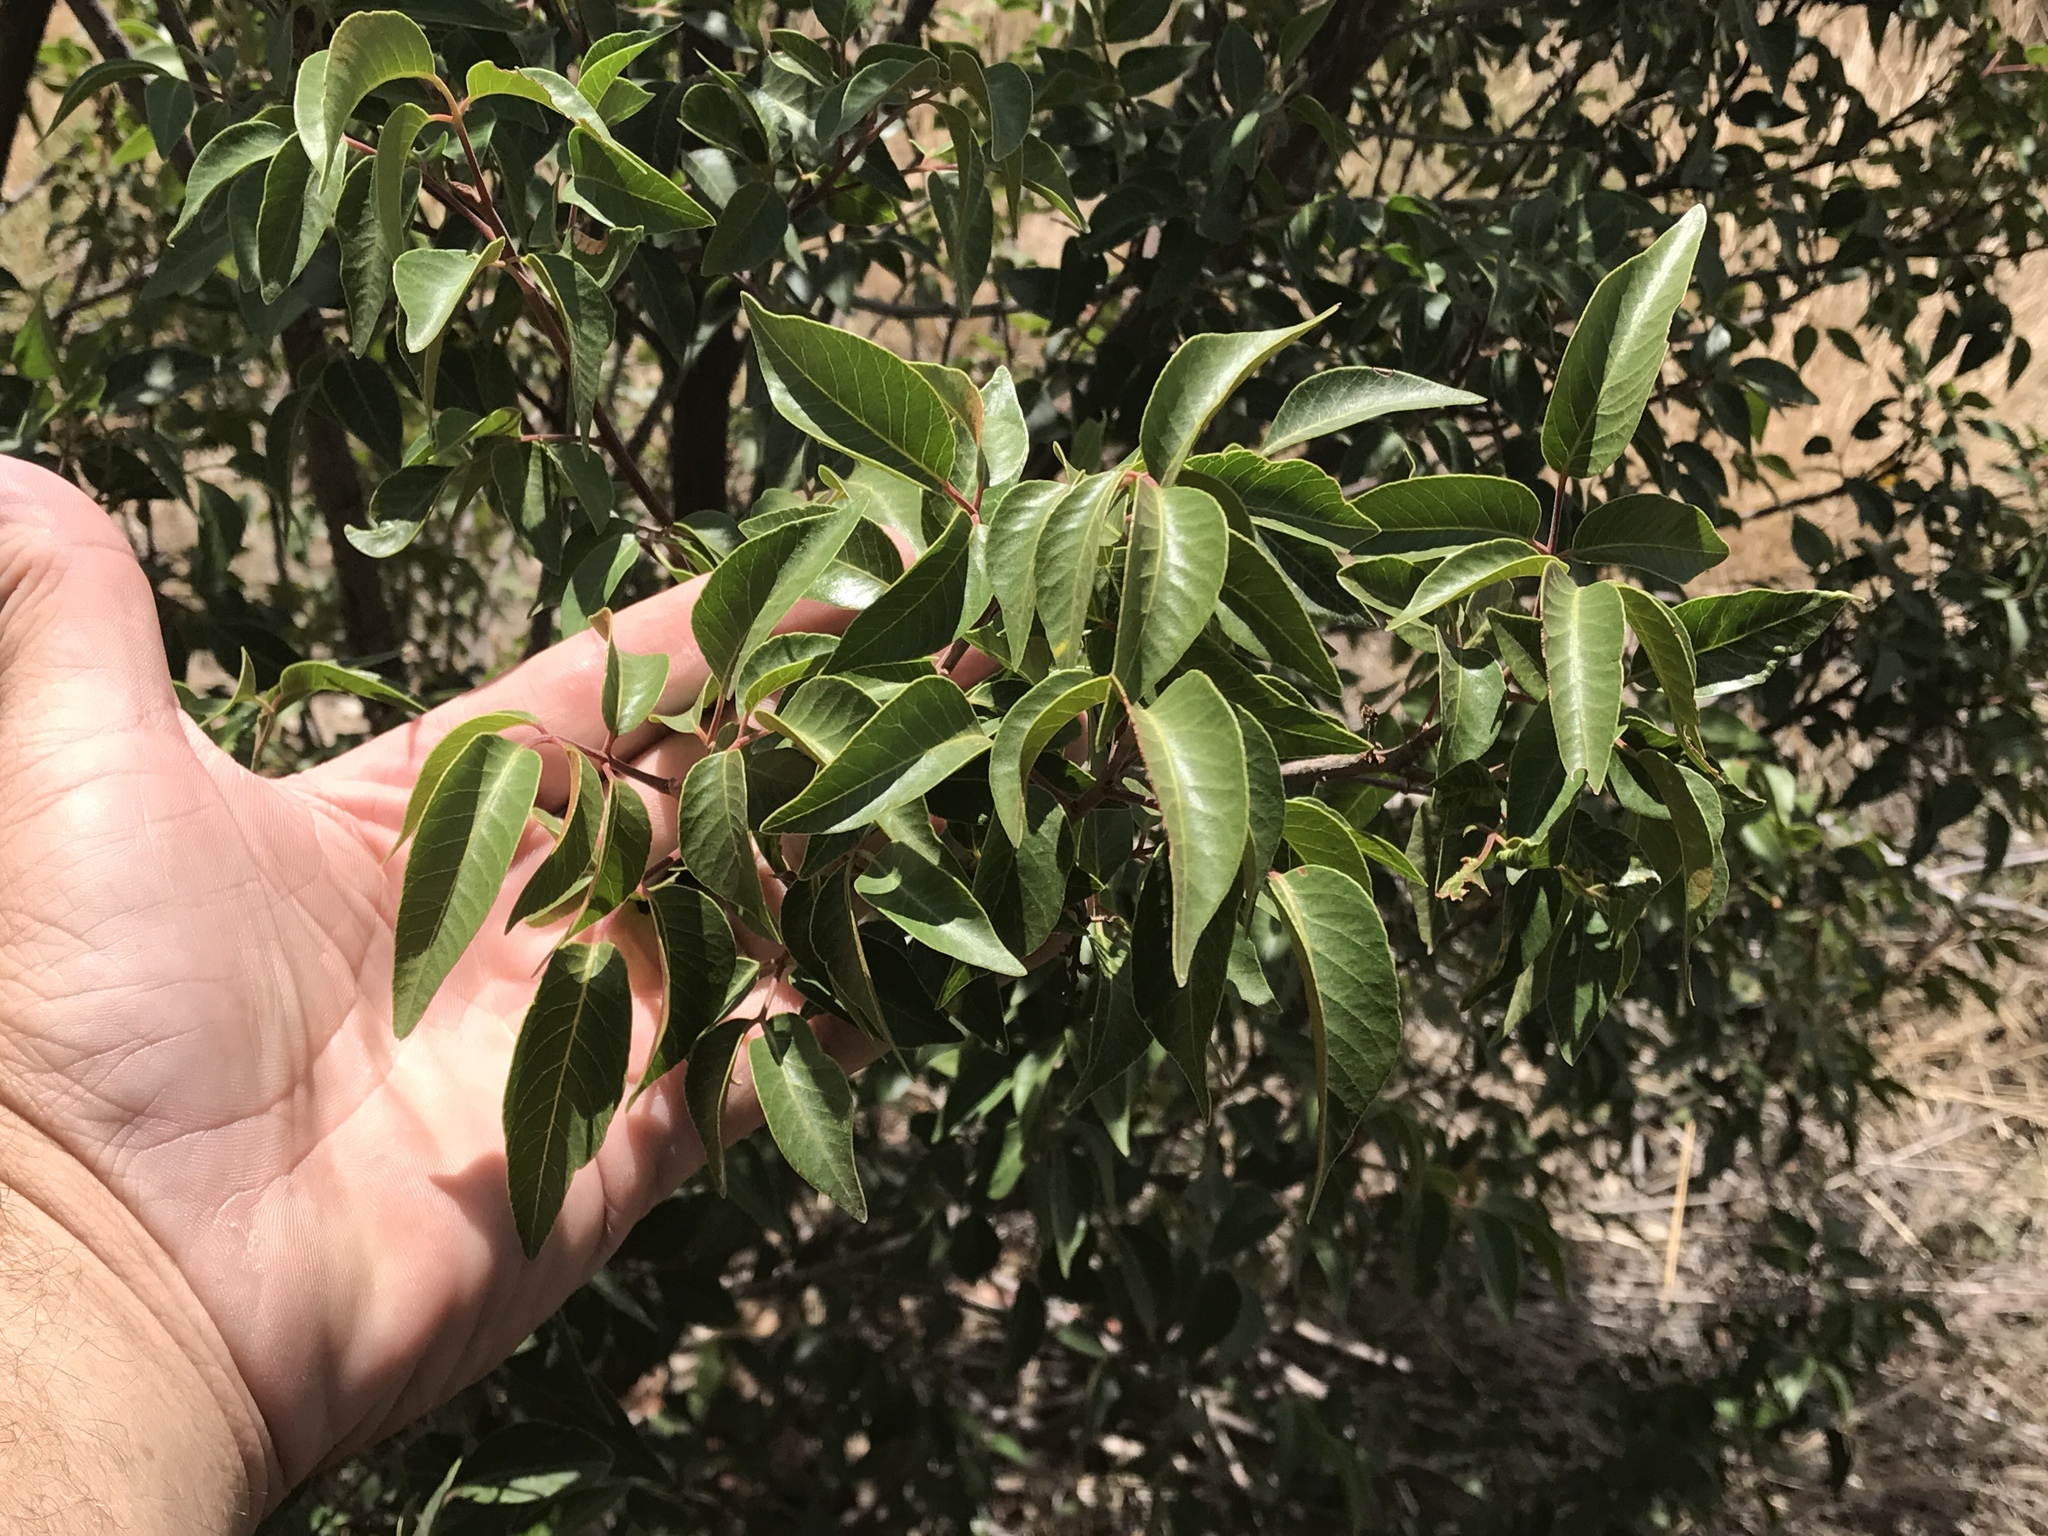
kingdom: Plantae
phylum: Tracheophyta
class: Magnoliopsida
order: Sapindales
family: Anacardiaceae
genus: Rhus
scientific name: Rhus virens
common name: Evergreen sumac
